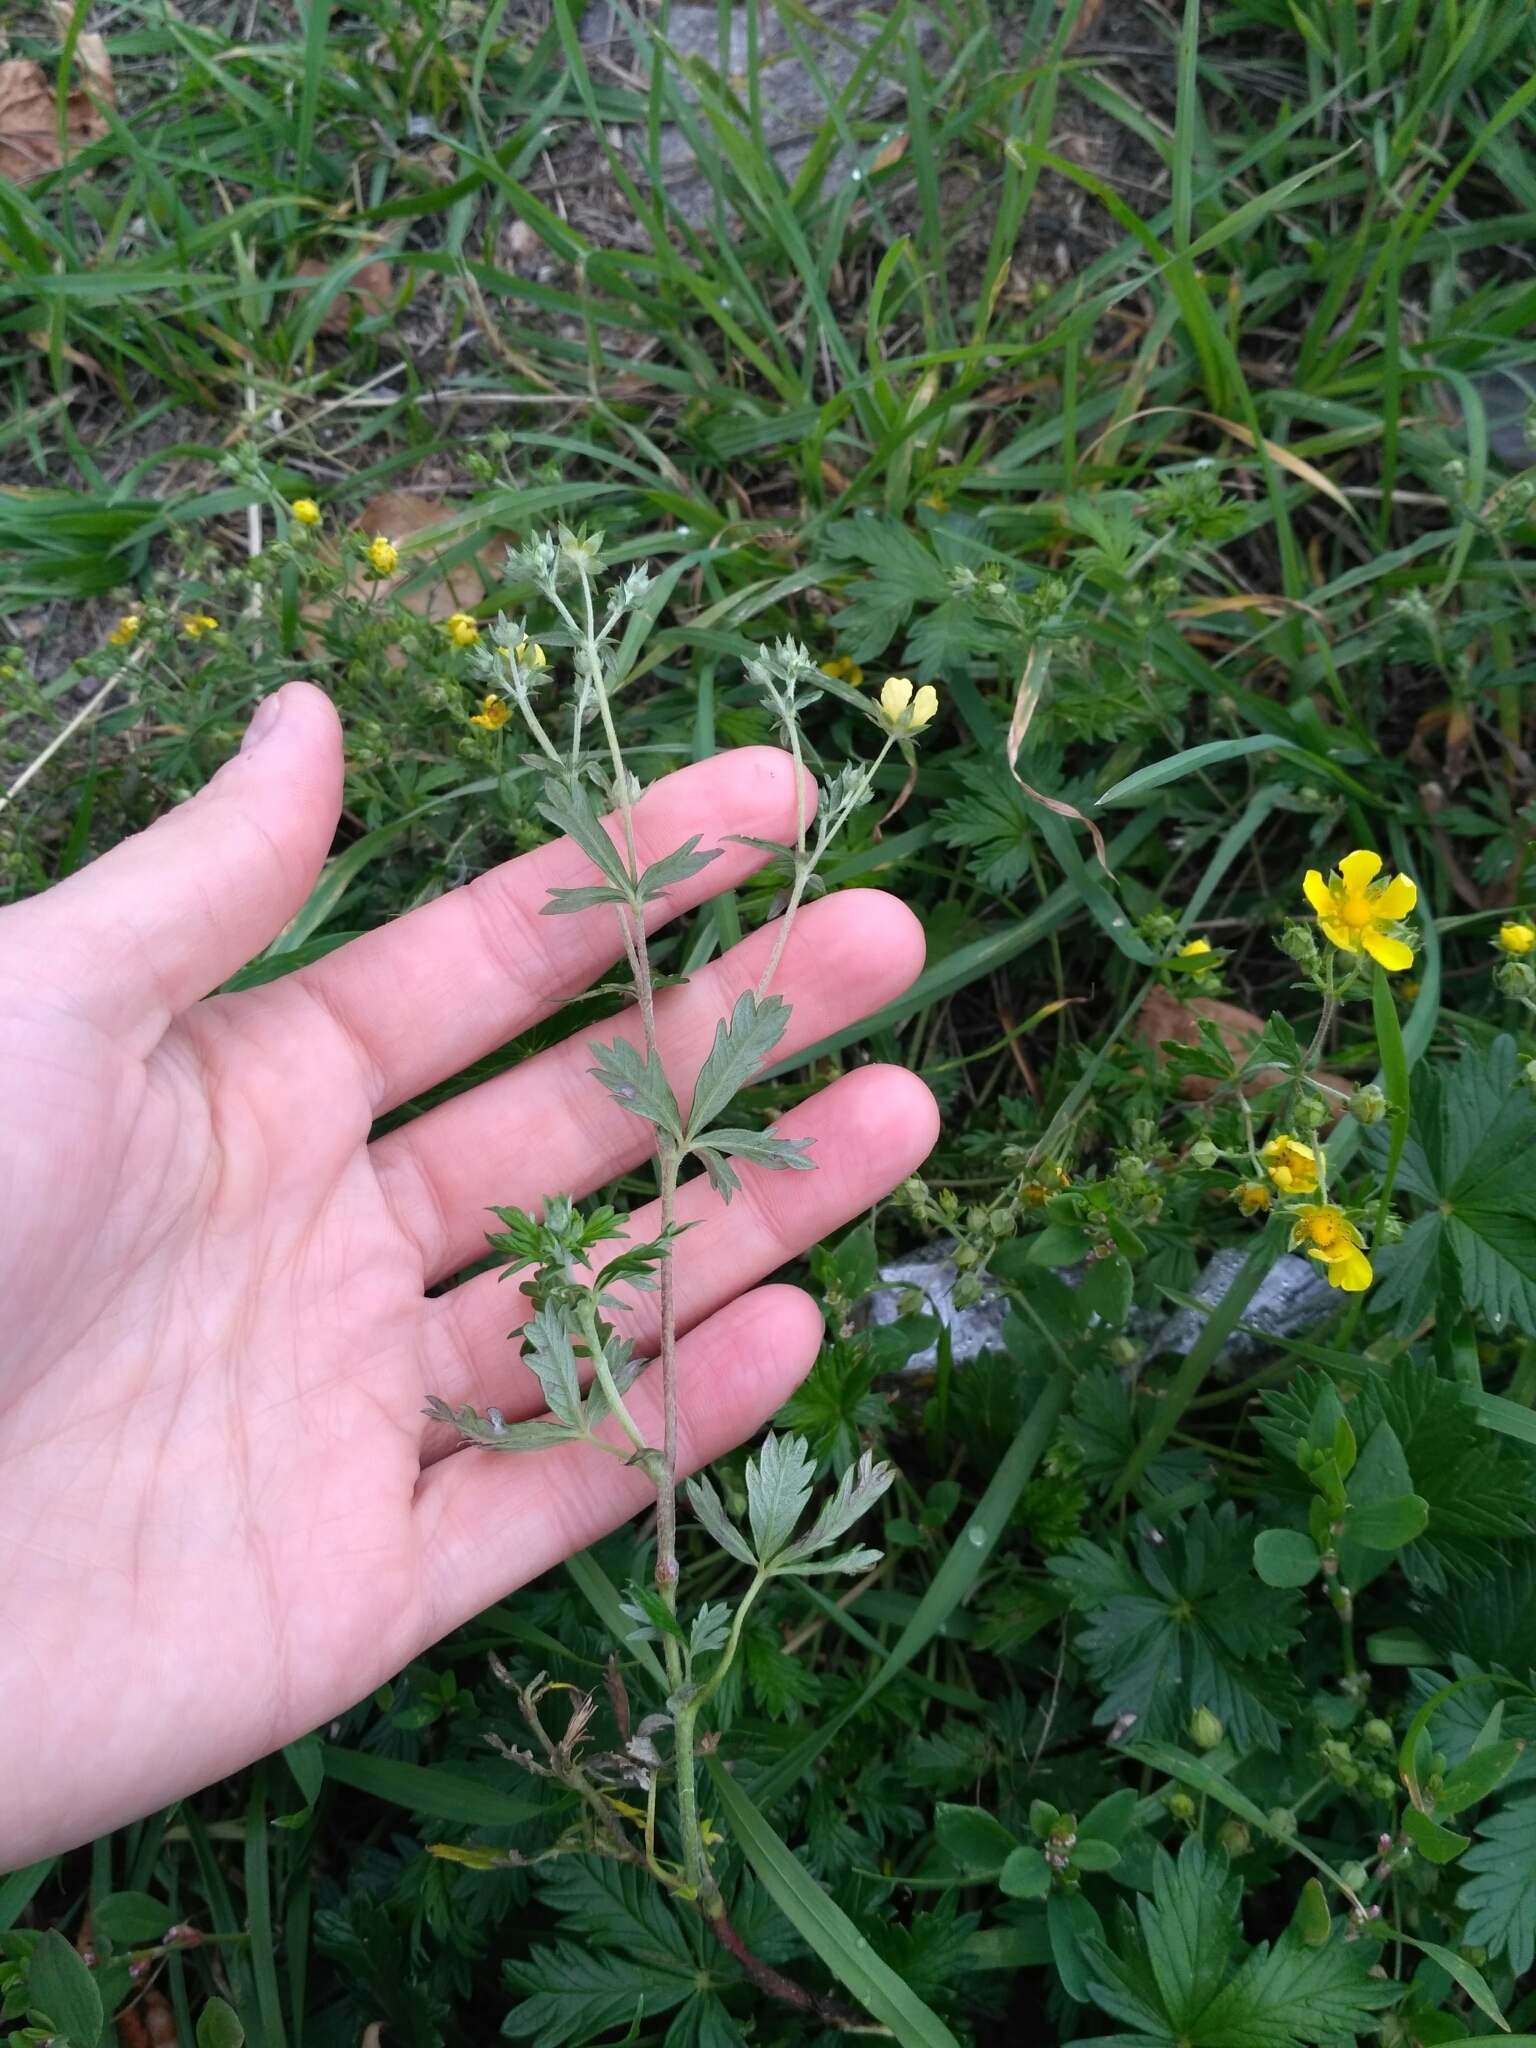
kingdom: Plantae
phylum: Tracheophyta
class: Magnoliopsida
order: Rosales
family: Rosaceae
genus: Potentilla
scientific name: Potentilla argentea
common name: Hoary cinquefoil
